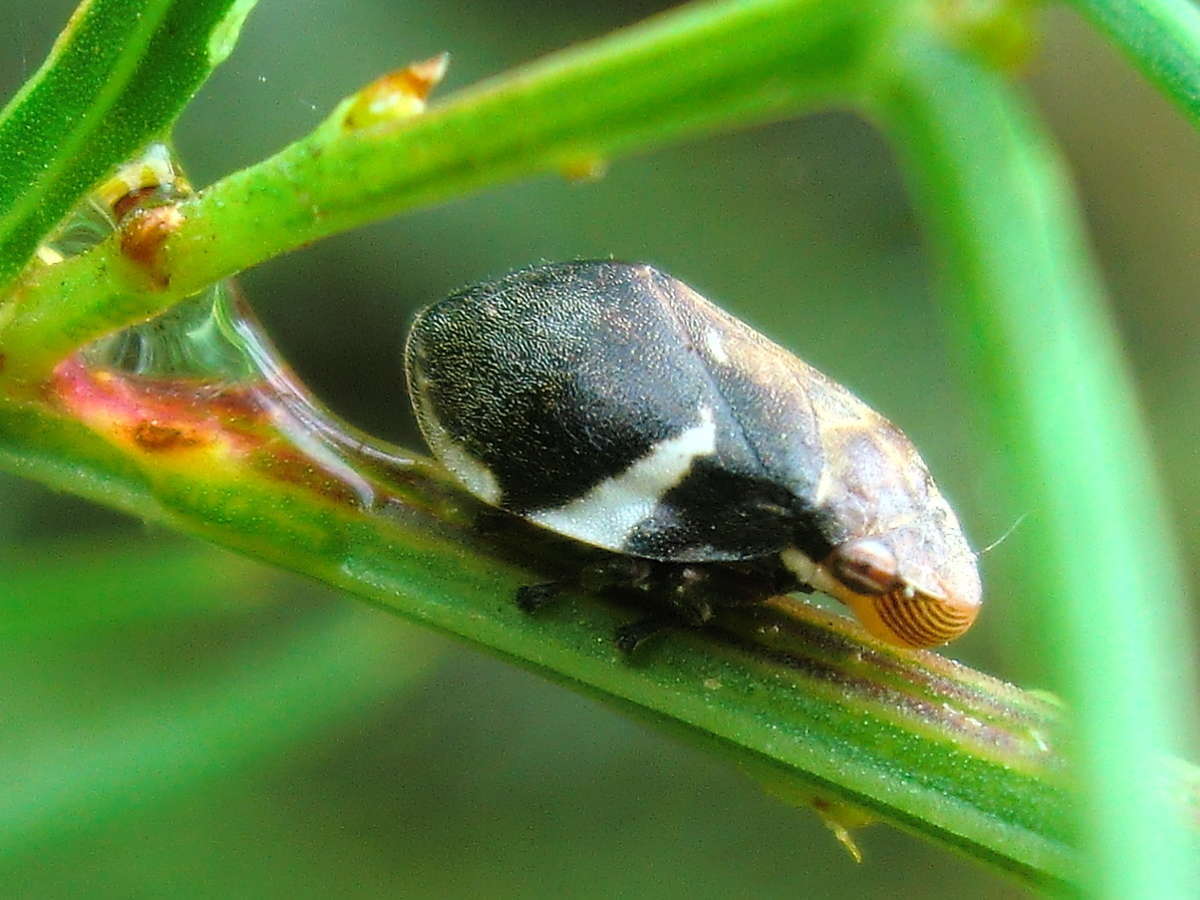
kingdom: Animalia
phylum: Arthropoda
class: Insecta
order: Hemiptera
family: Aphrophoridae
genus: Bathyllus
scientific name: Bathyllus albicinctus
